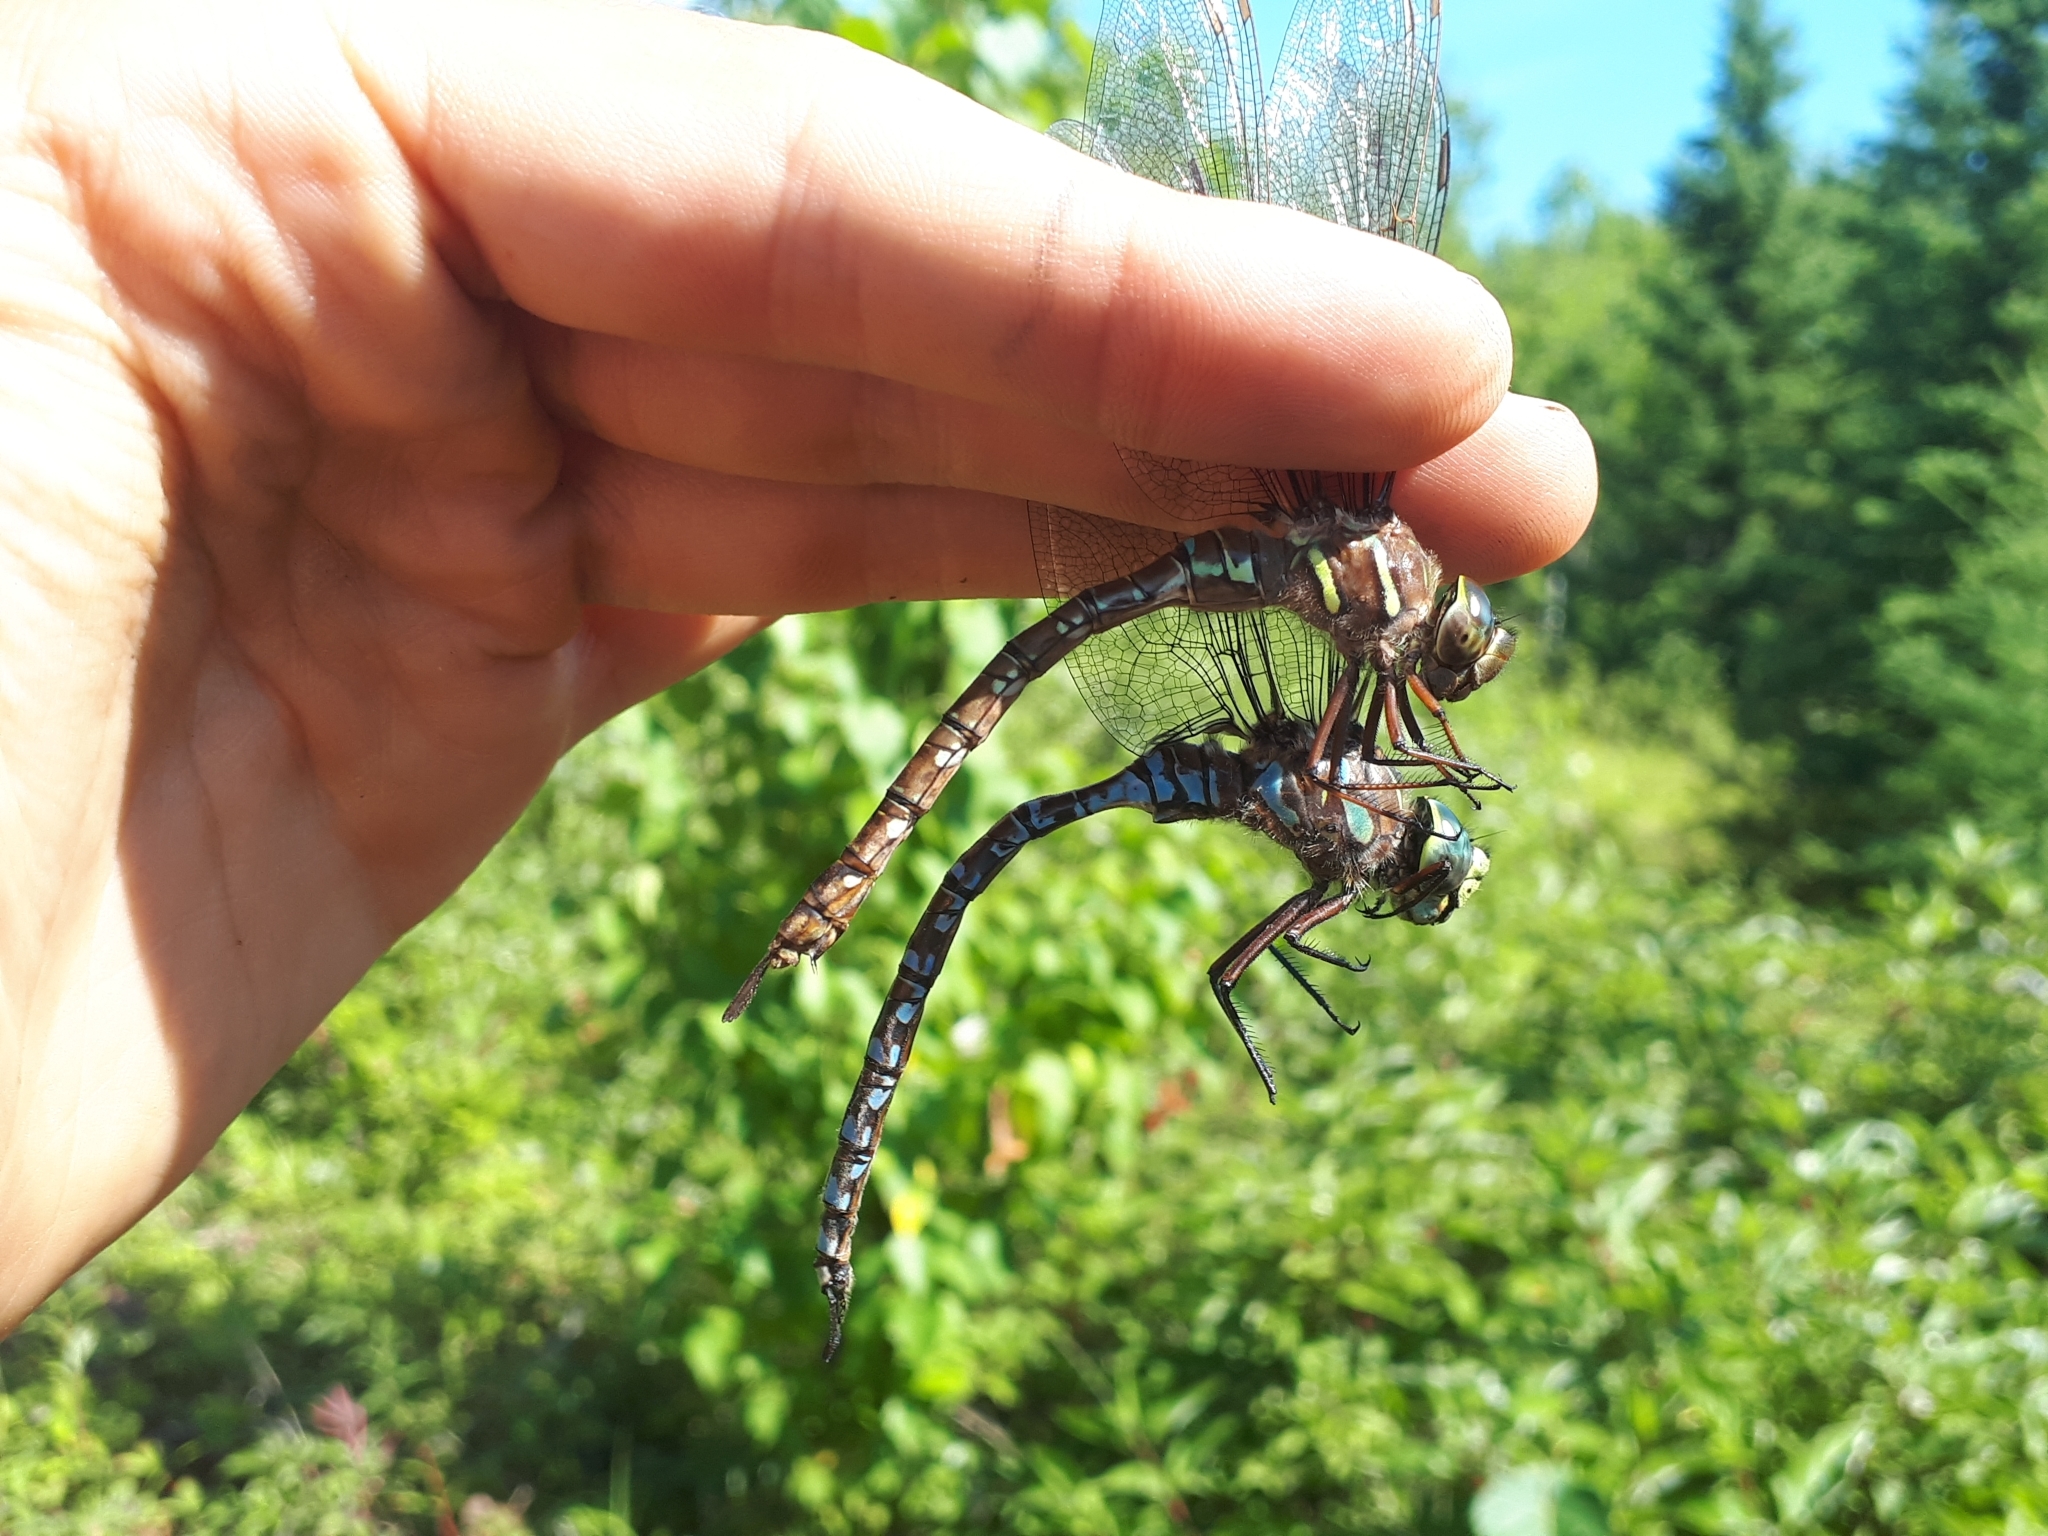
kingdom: Animalia
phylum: Arthropoda
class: Insecta
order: Odonata
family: Aeshnidae
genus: Aeshna
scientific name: Aeshna umbrosa
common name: Shadow darner
